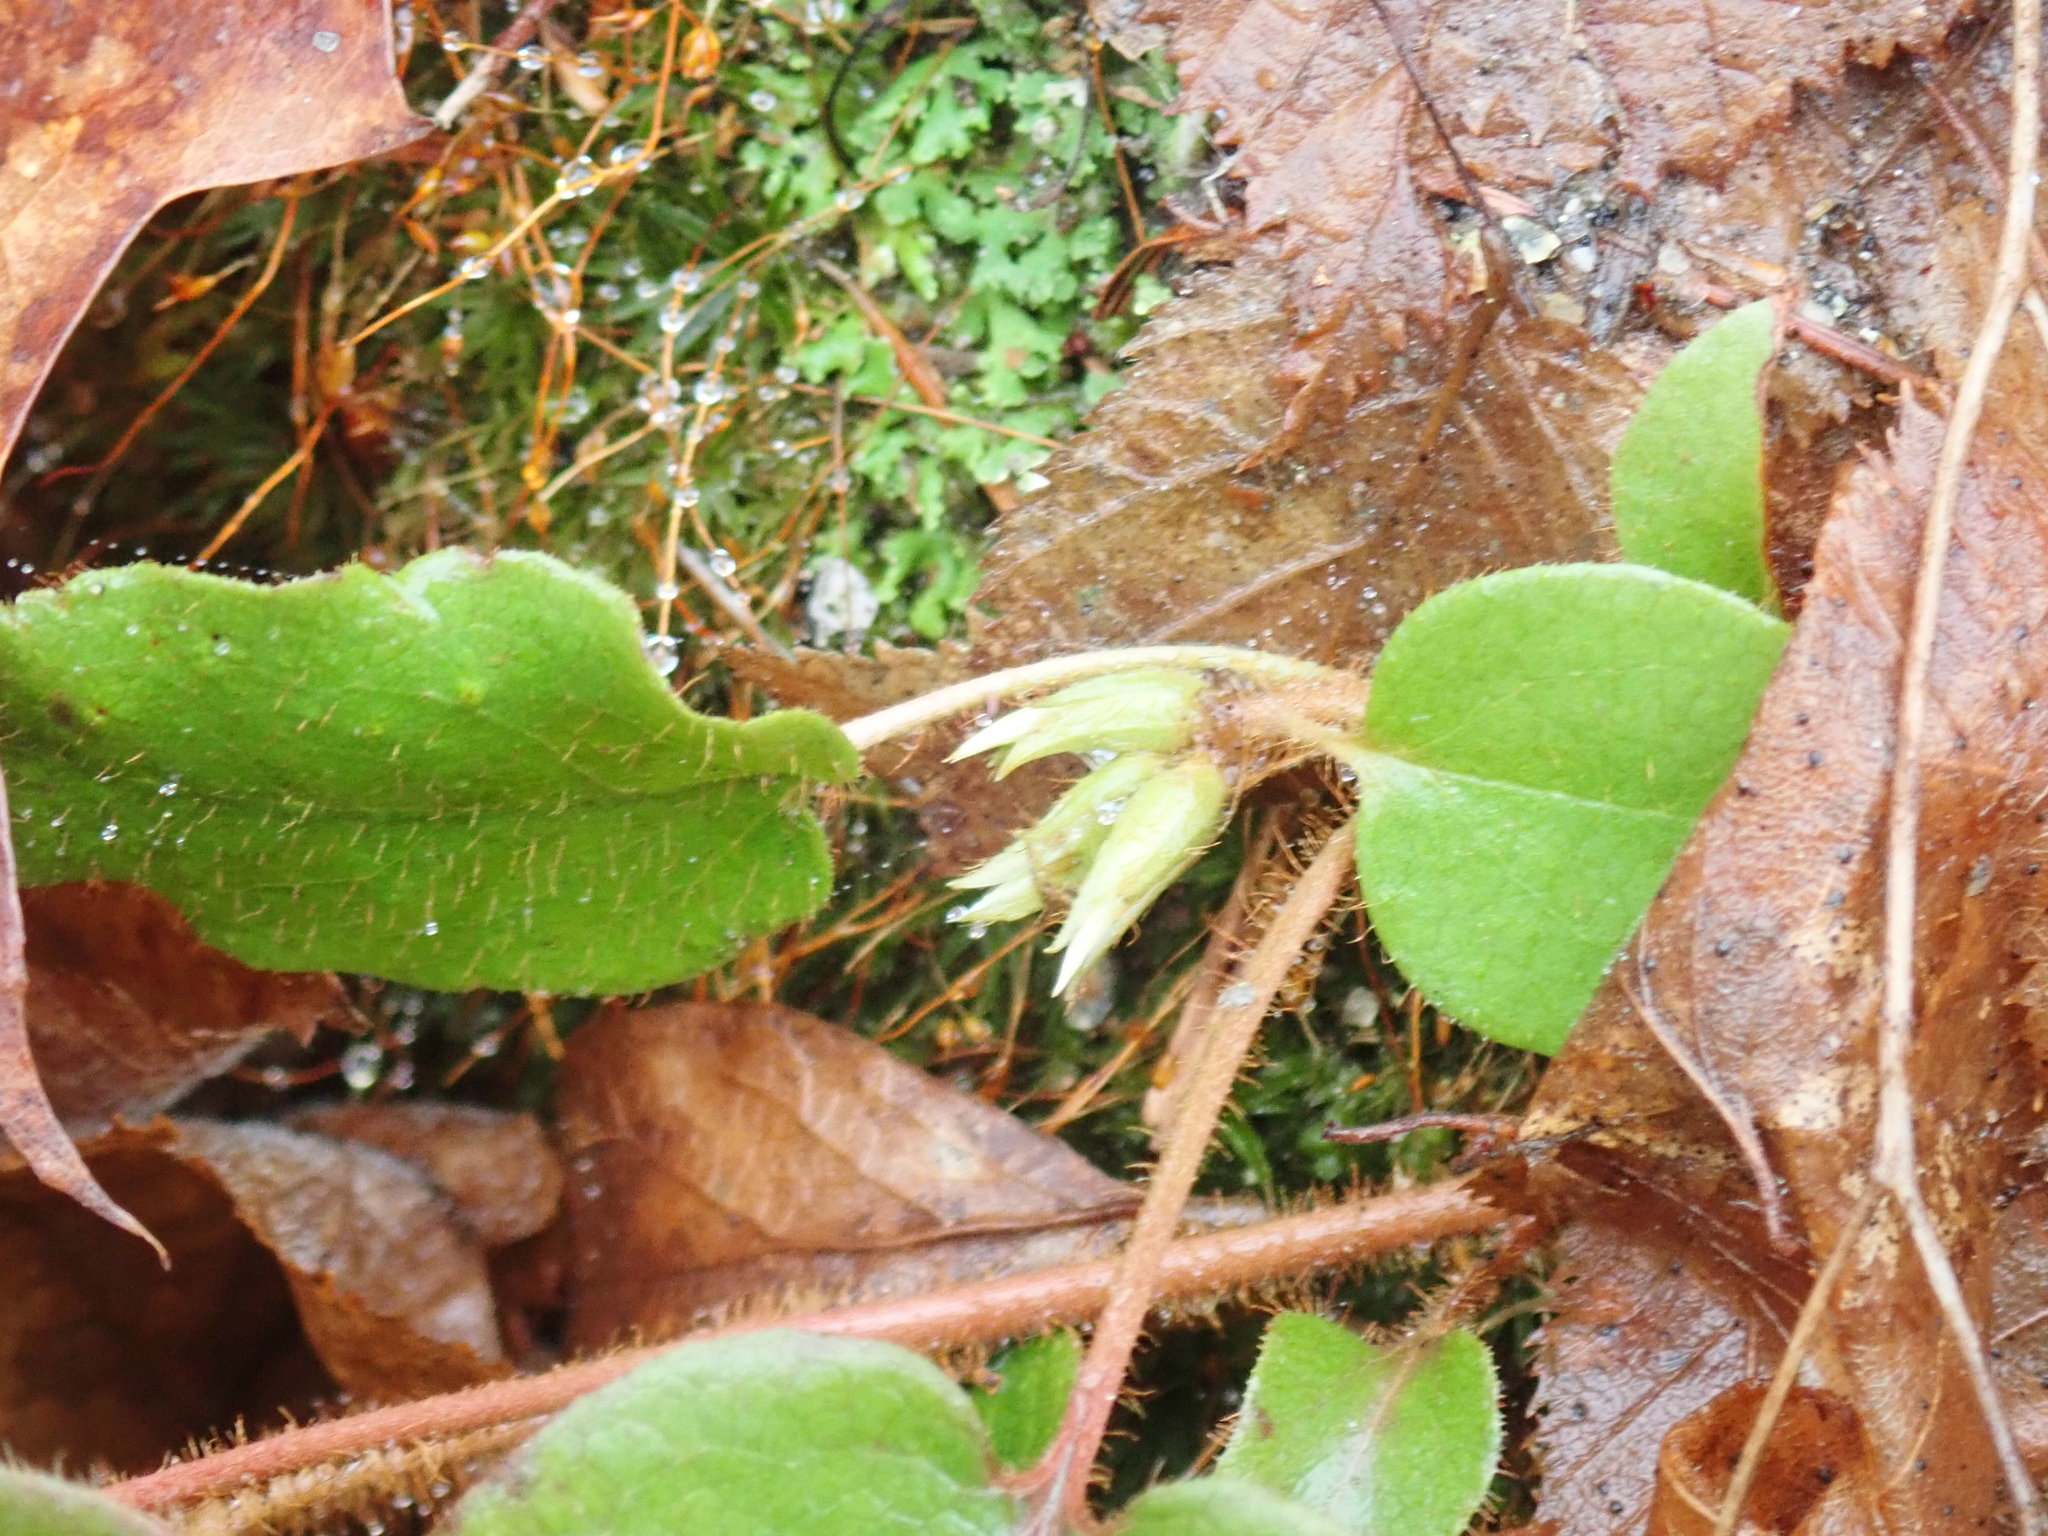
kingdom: Plantae
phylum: Tracheophyta
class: Magnoliopsida
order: Ericales
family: Ericaceae
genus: Epigaea
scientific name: Epigaea repens
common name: Gravelroot
